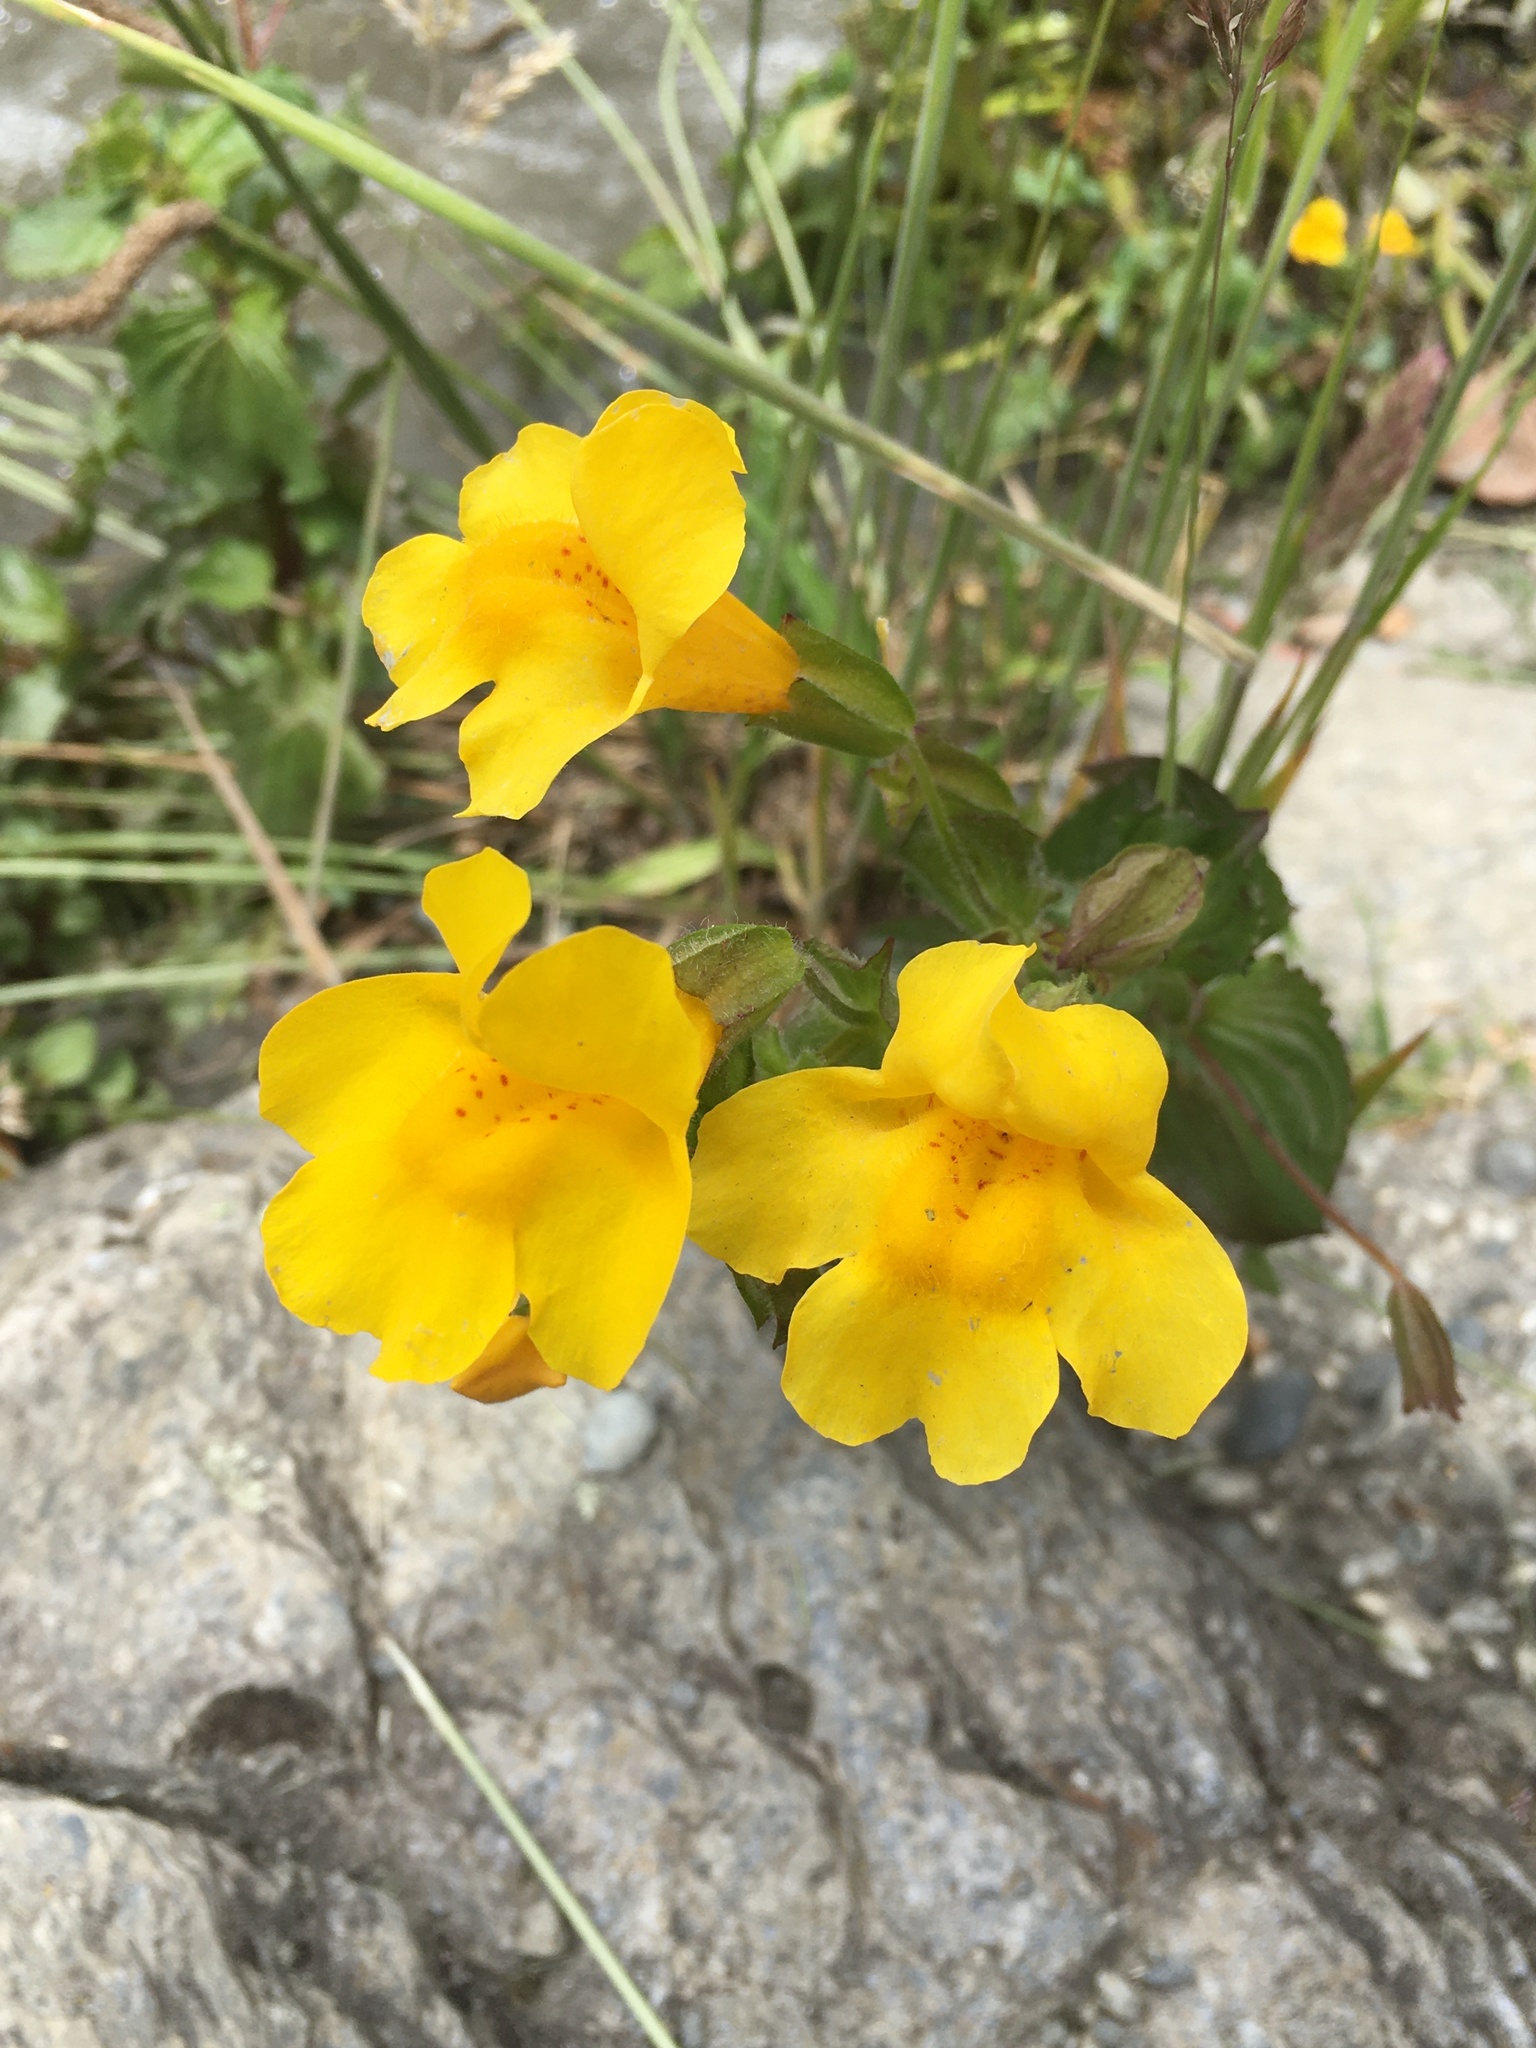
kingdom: Plantae
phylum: Tracheophyta
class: Magnoliopsida
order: Lamiales
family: Phrymaceae
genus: Erythranthe
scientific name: Erythranthe guttata
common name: Monkeyflower
